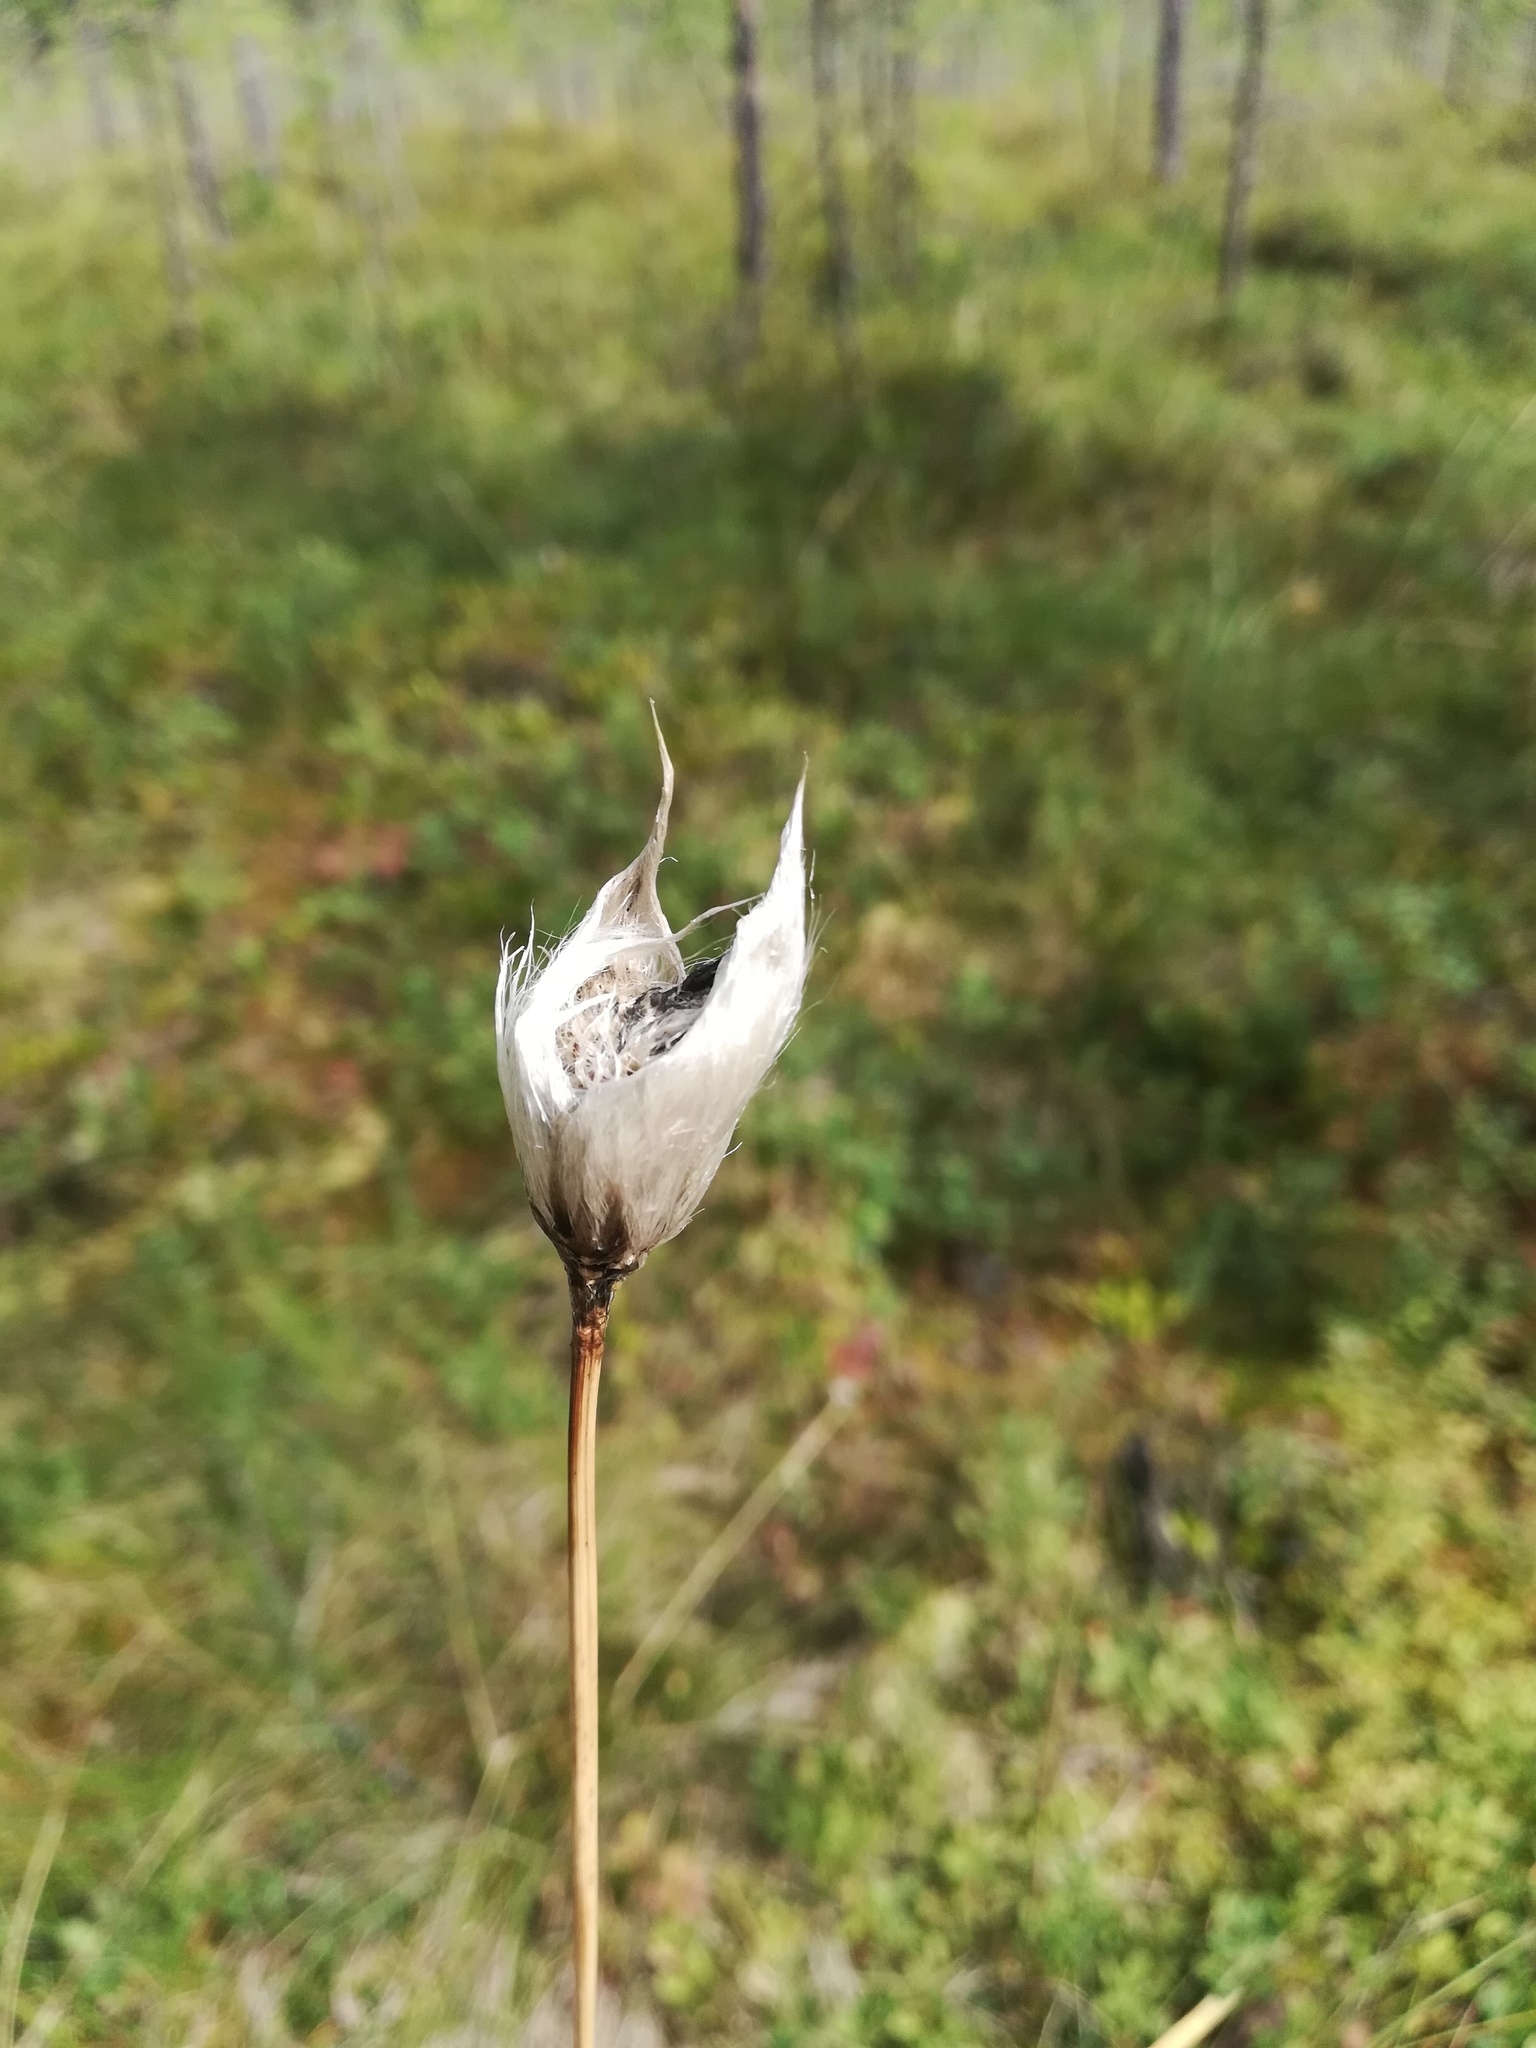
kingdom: Plantae
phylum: Tracheophyta
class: Liliopsida
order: Poales
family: Cyperaceae
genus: Eriophorum
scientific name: Eriophorum vaginatum
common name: Hare's-tail cottongrass
